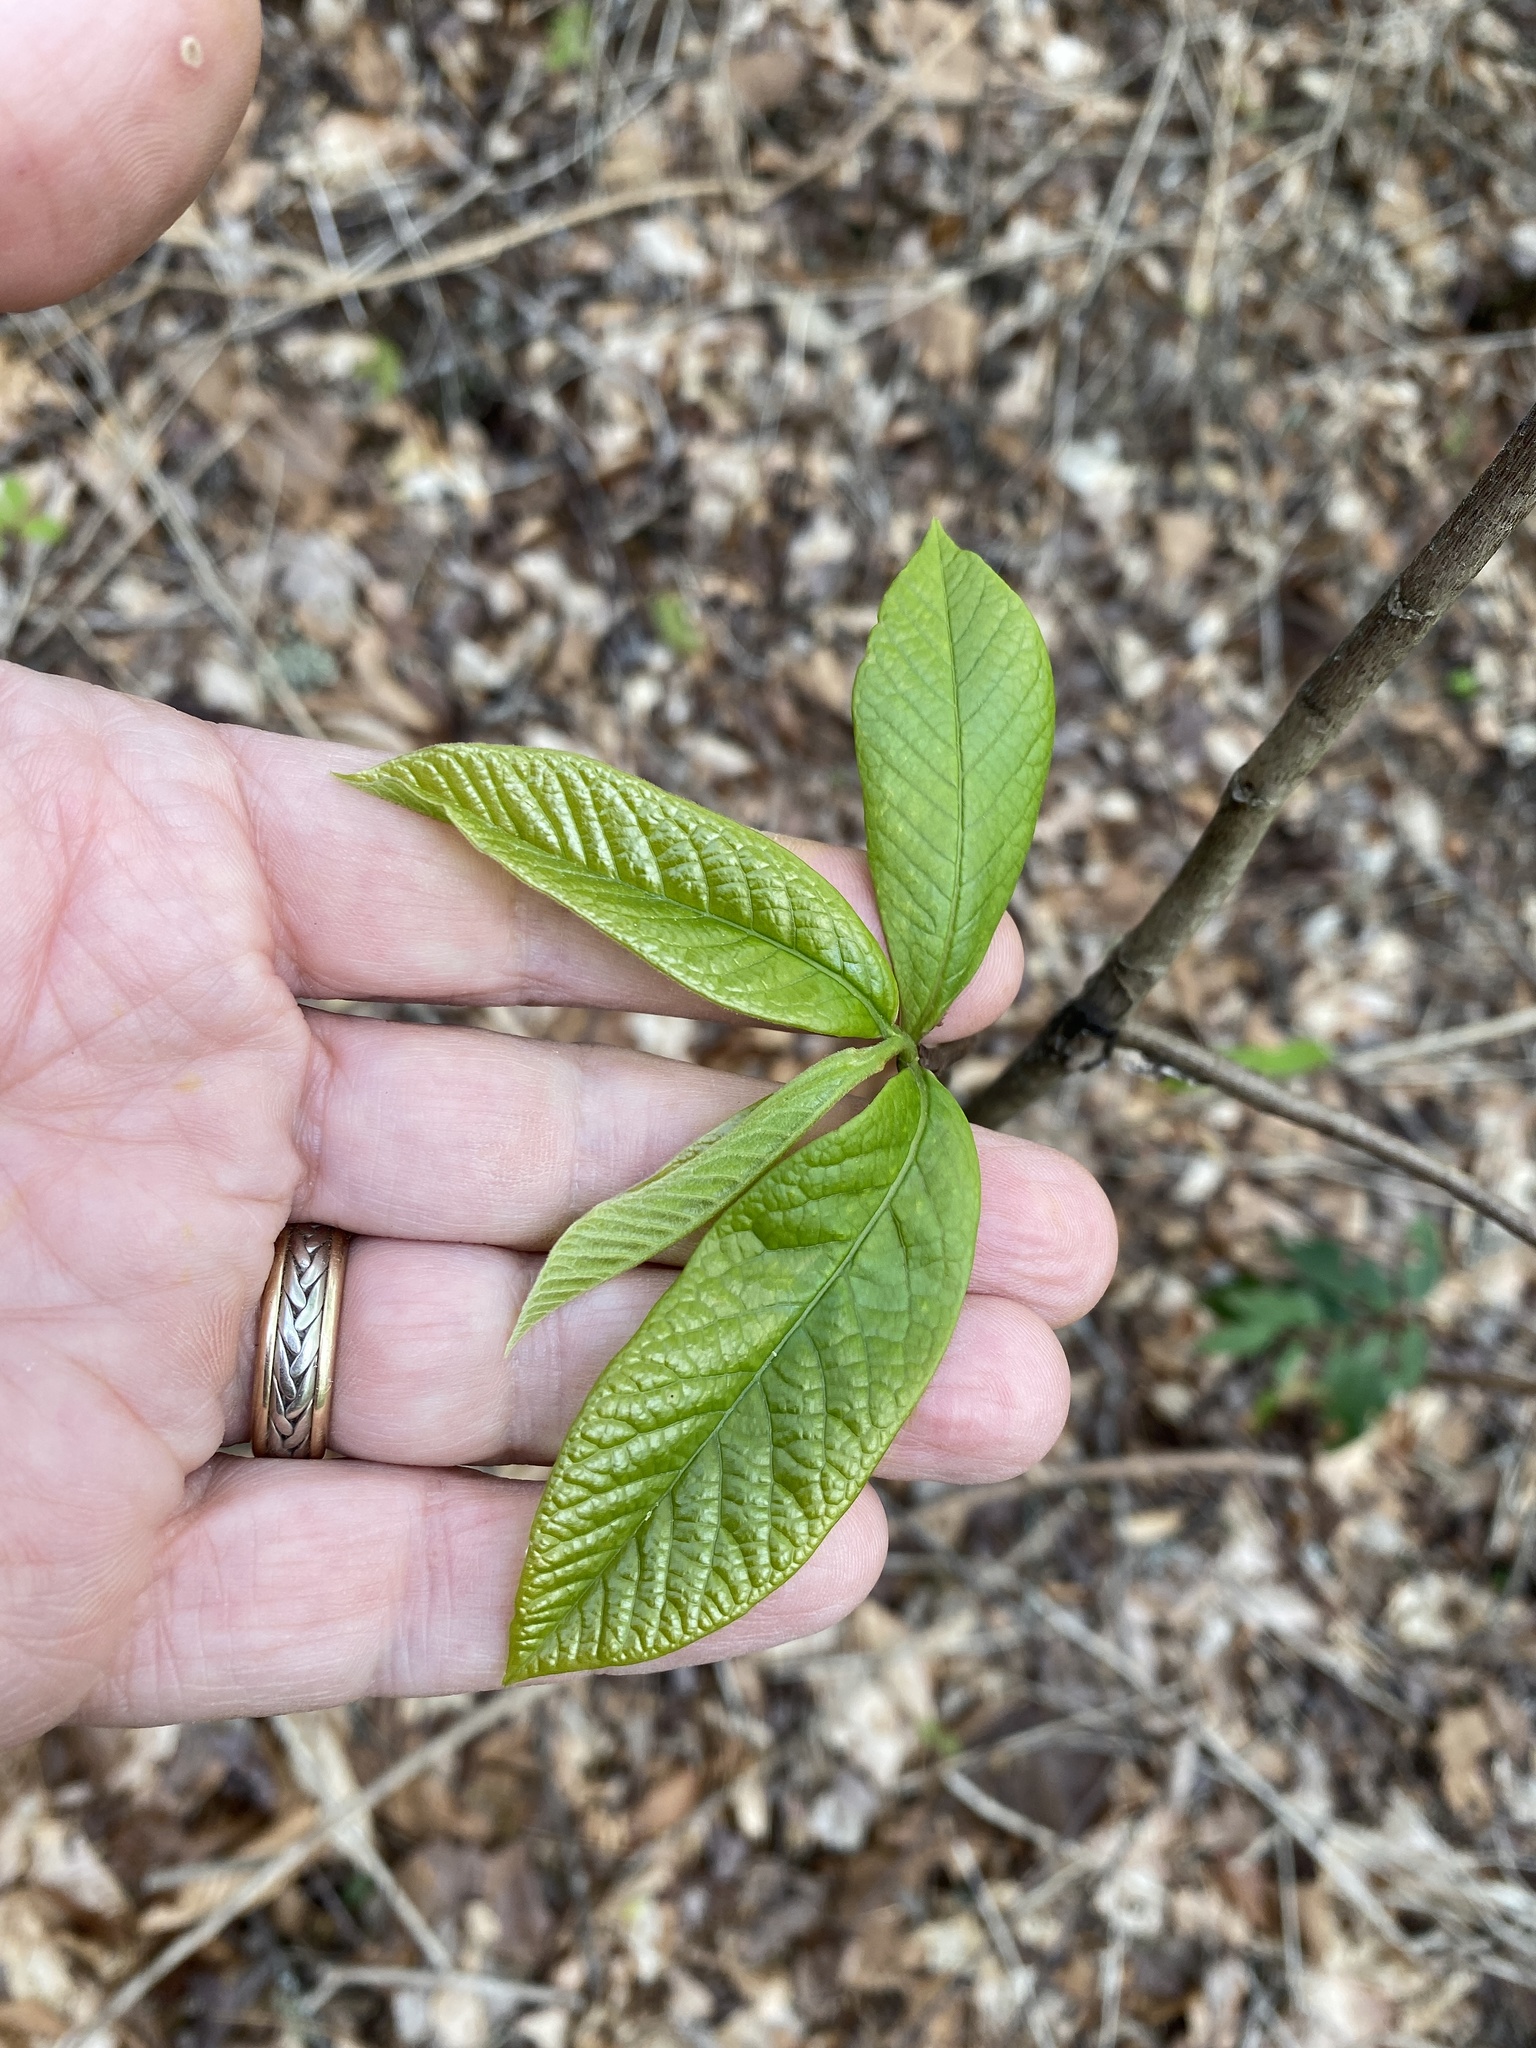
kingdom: Plantae
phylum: Tracheophyta
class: Magnoliopsida
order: Magnoliales
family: Annonaceae
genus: Asimina
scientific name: Asimina triloba
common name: Dog-banana
